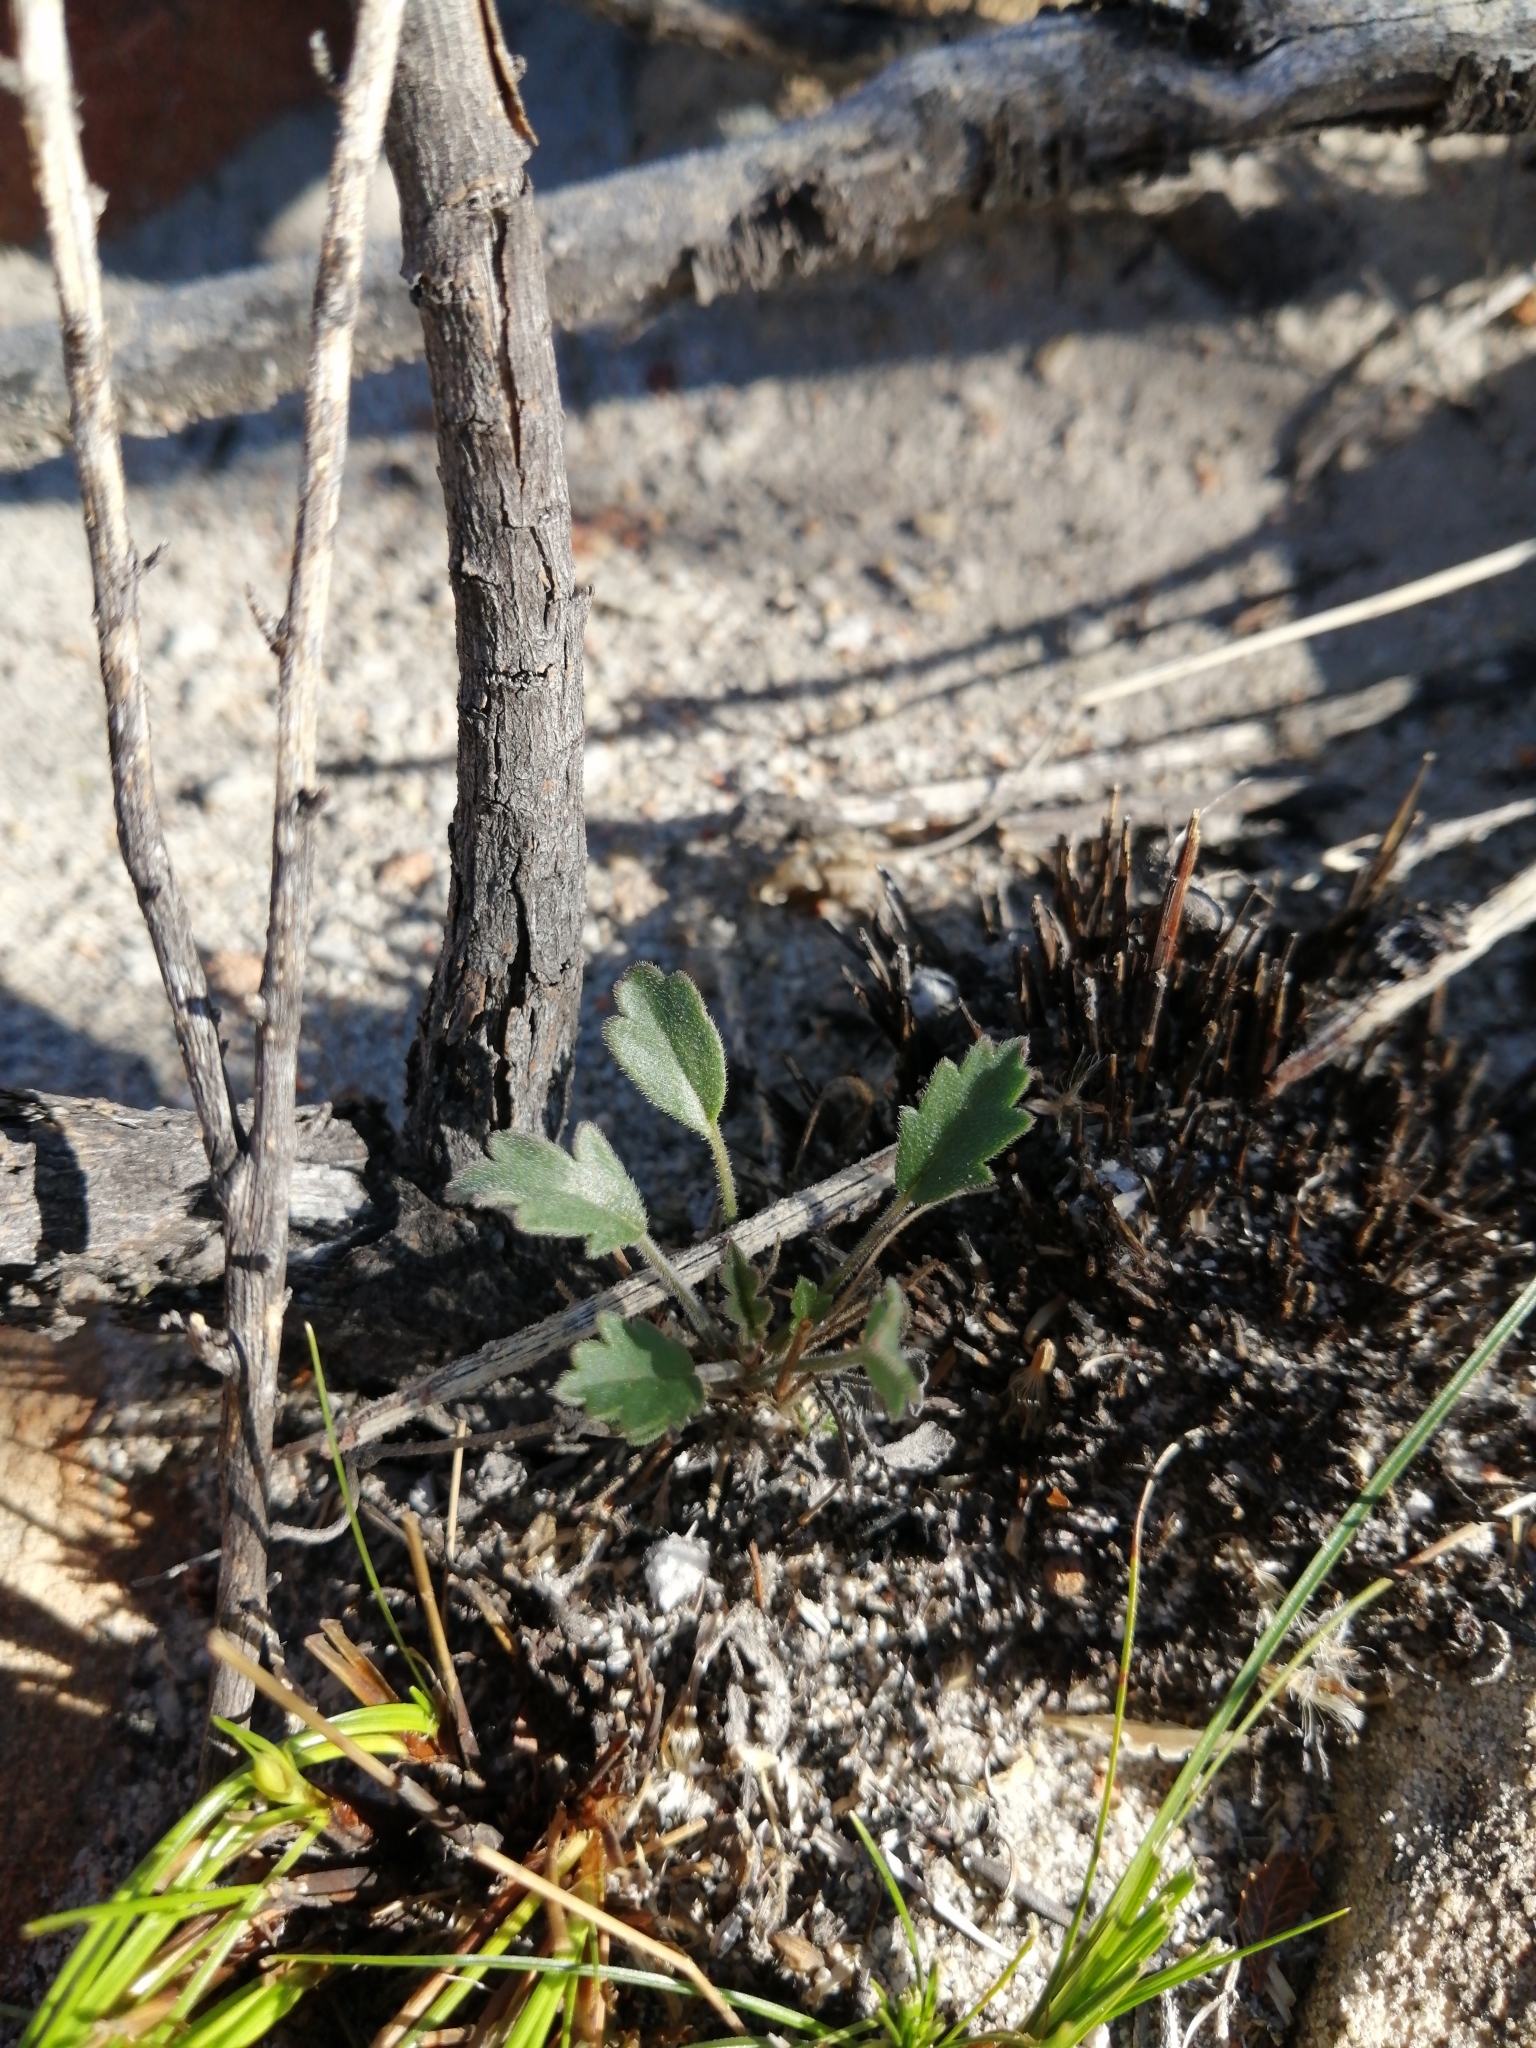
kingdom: Plantae
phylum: Tracheophyta
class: Magnoliopsida
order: Geraniales
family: Geraniaceae
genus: Pelargonium
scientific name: Pelargonium capillare
